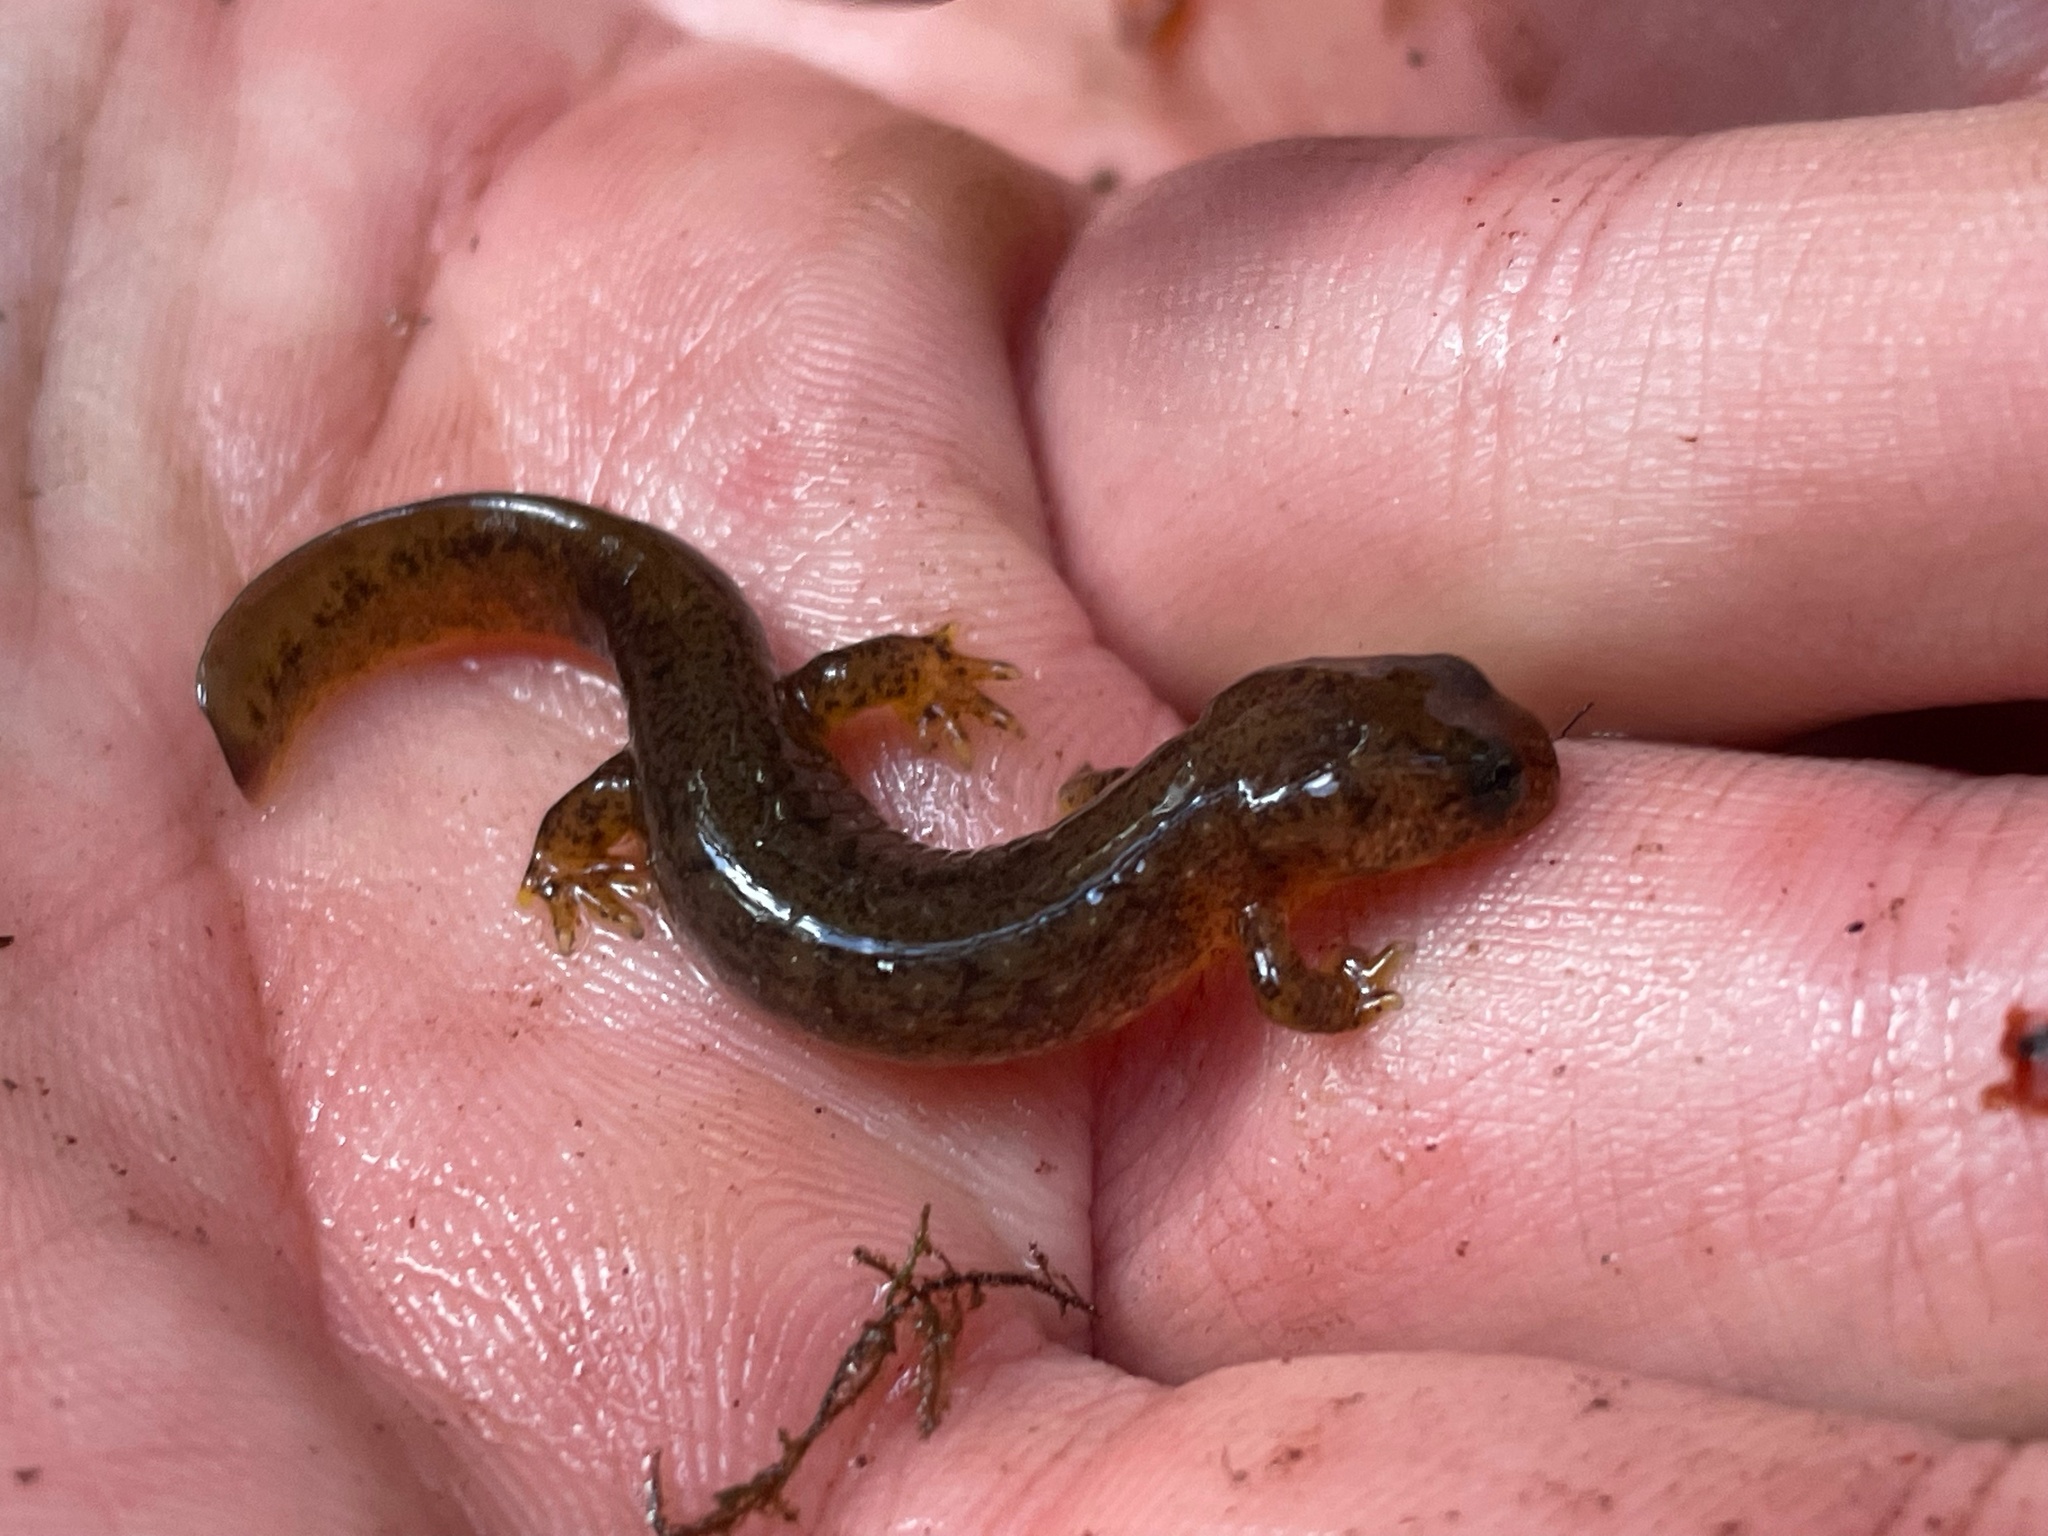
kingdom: Animalia
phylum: Chordata
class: Amphibia
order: Caudata
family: Rhyacotritonidae
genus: Rhyacotriton
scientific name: Rhyacotriton olympicus
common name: Olympic torrent salamander
